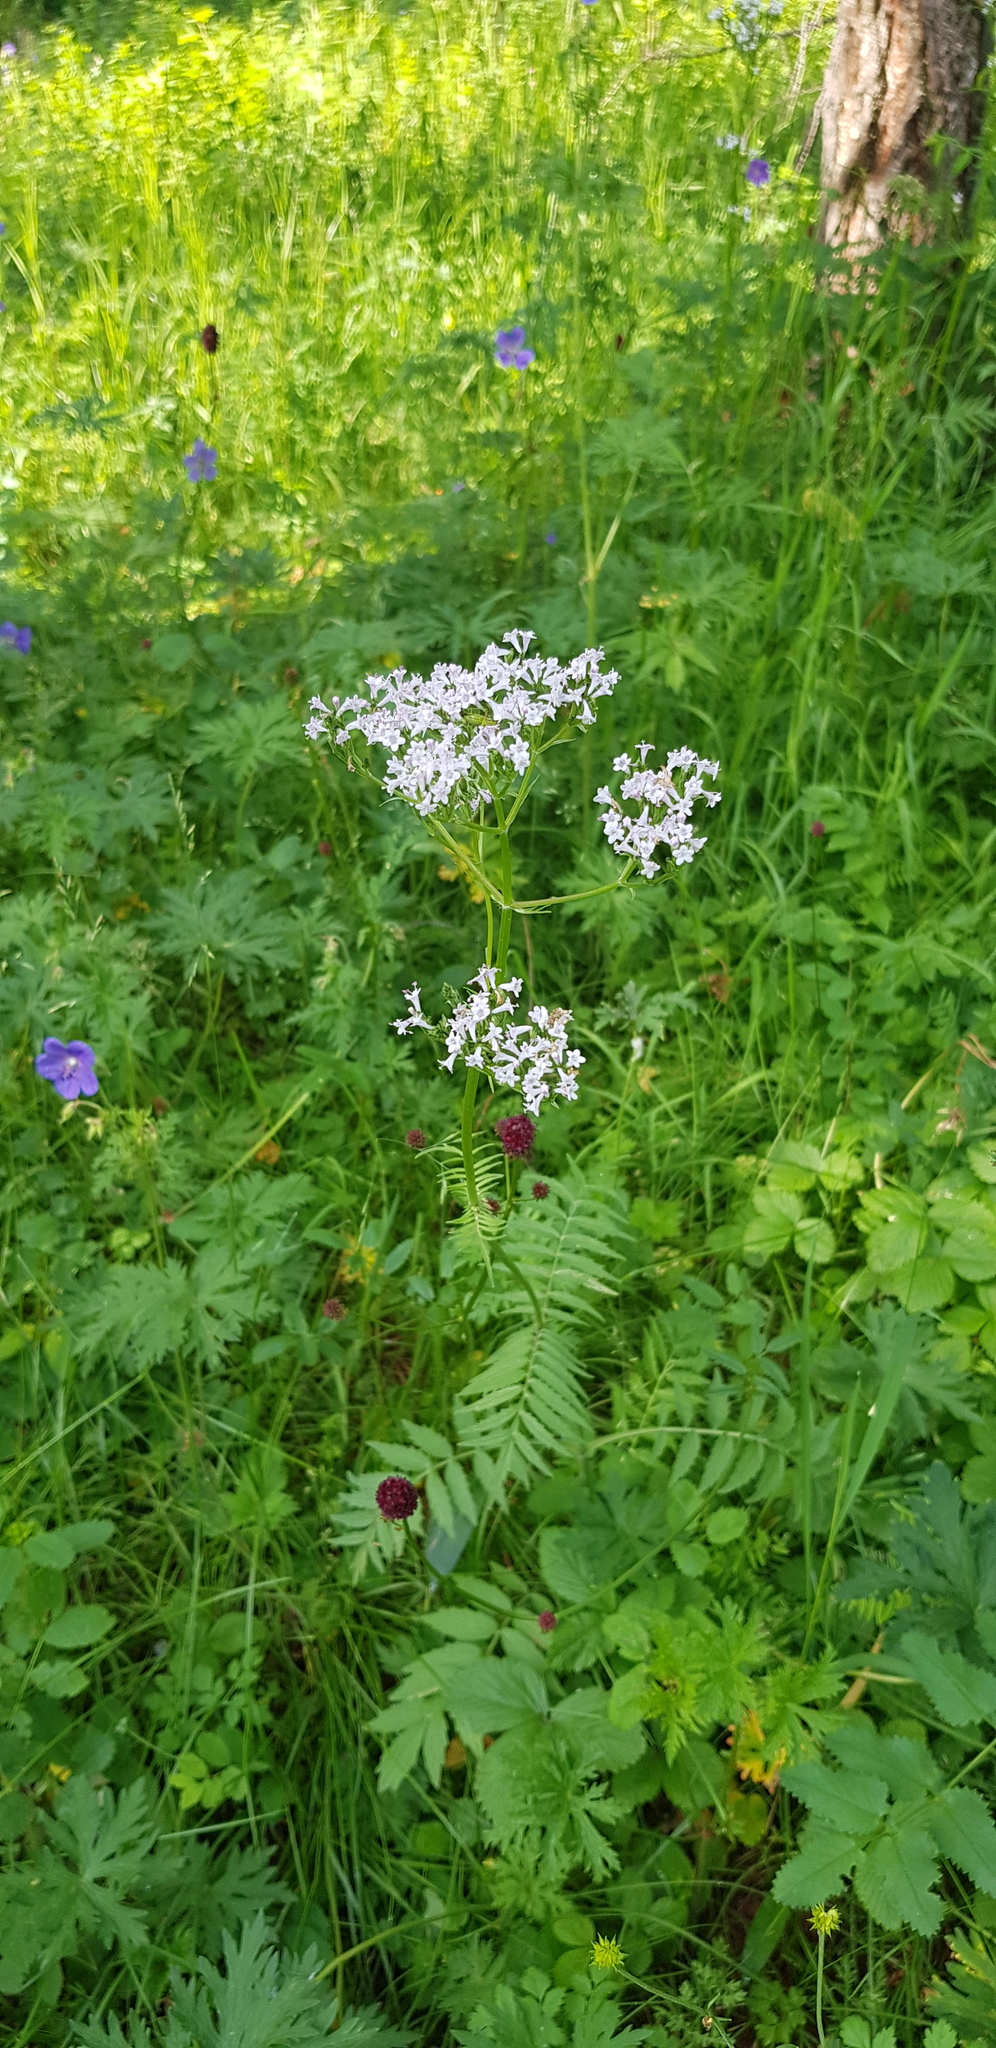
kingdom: Plantae
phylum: Tracheophyta
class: Magnoliopsida
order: Dipsacales
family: Caprifoliaceae
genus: Valeriana
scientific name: Valeriana officinalis
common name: Common valerian
